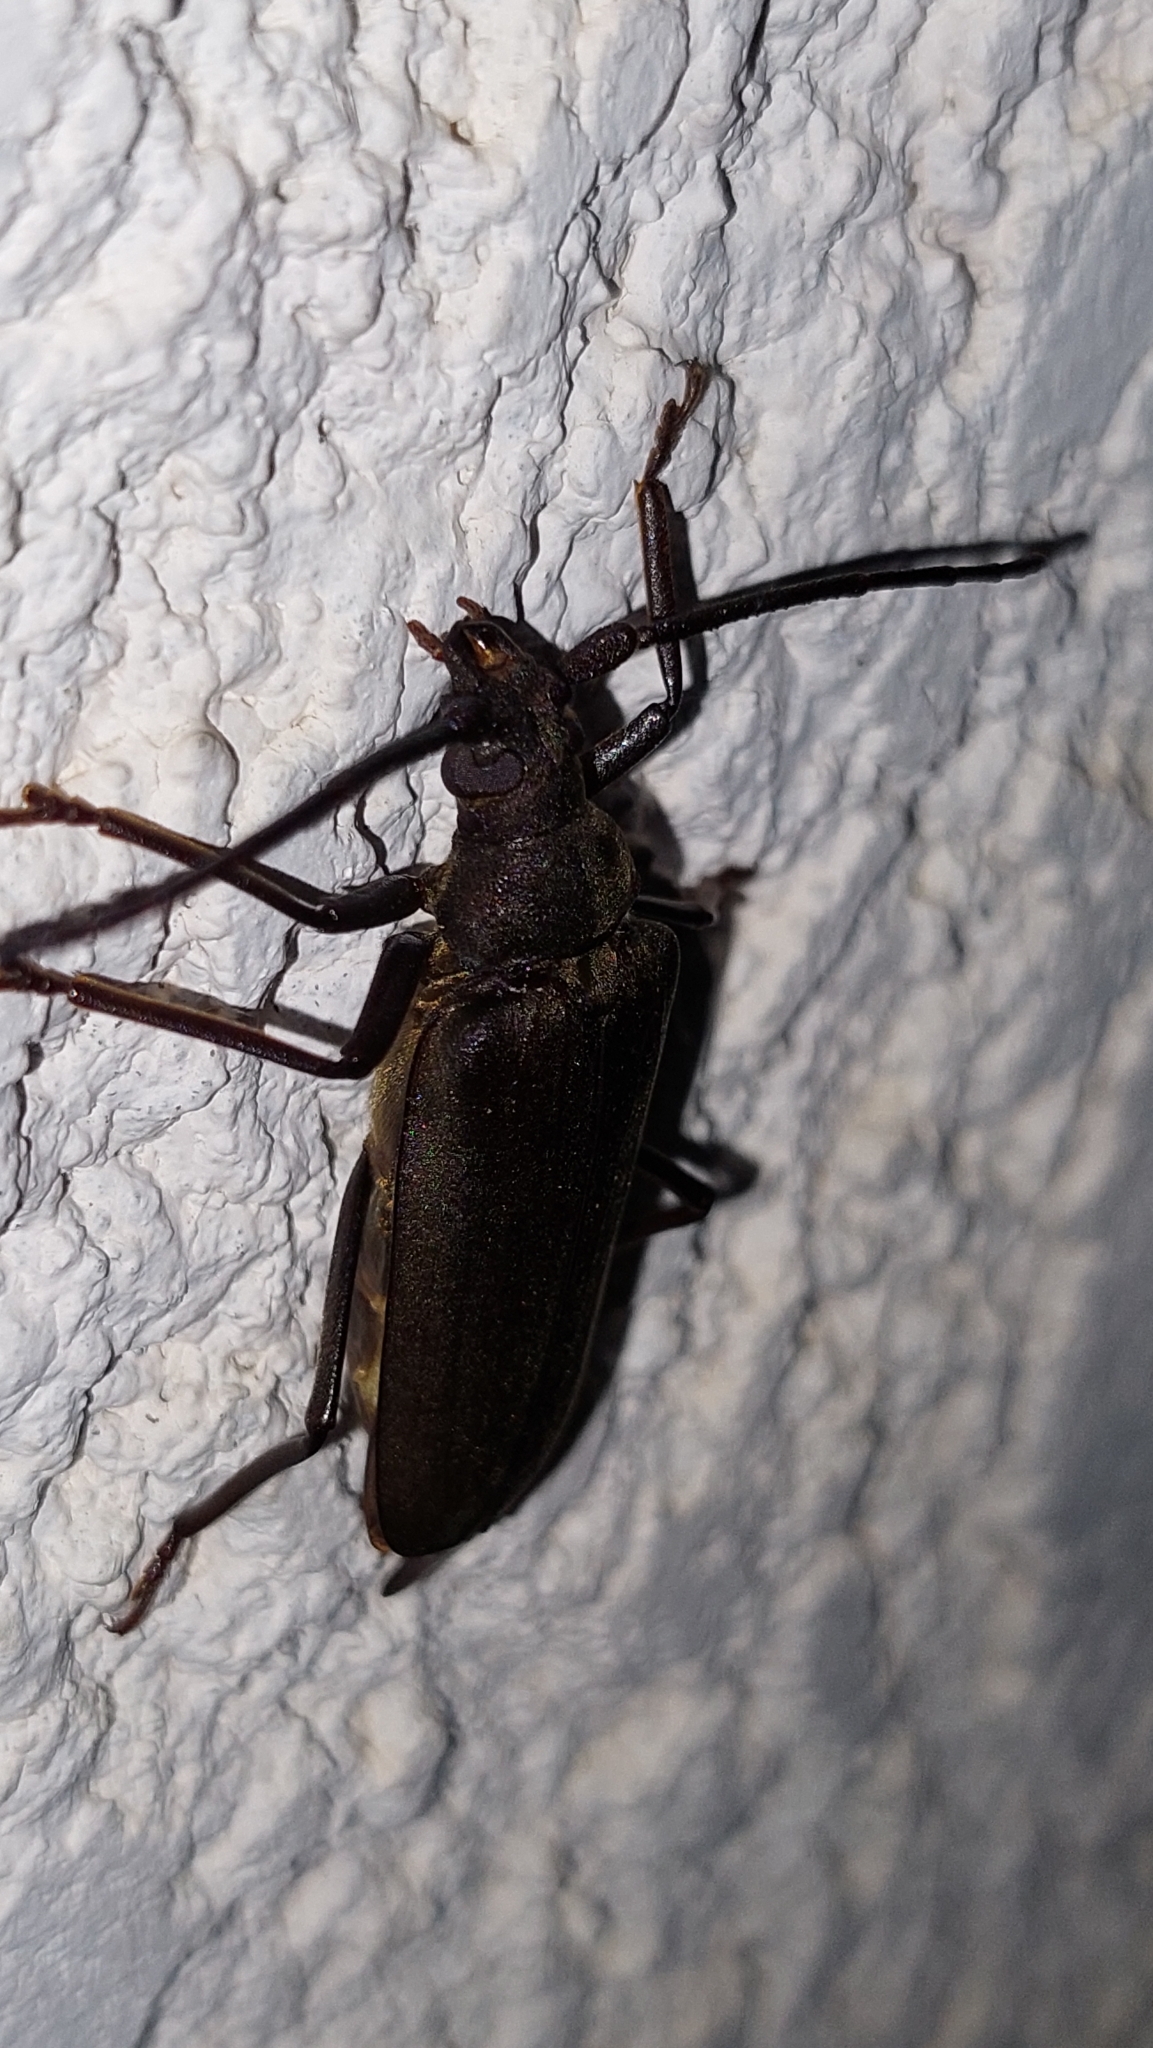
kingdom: Animalia
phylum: Arthropoda
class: Insecta
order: Coleoptera
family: Cerambycidae
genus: Aegosoma
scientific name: Aegosoma scabricorne
